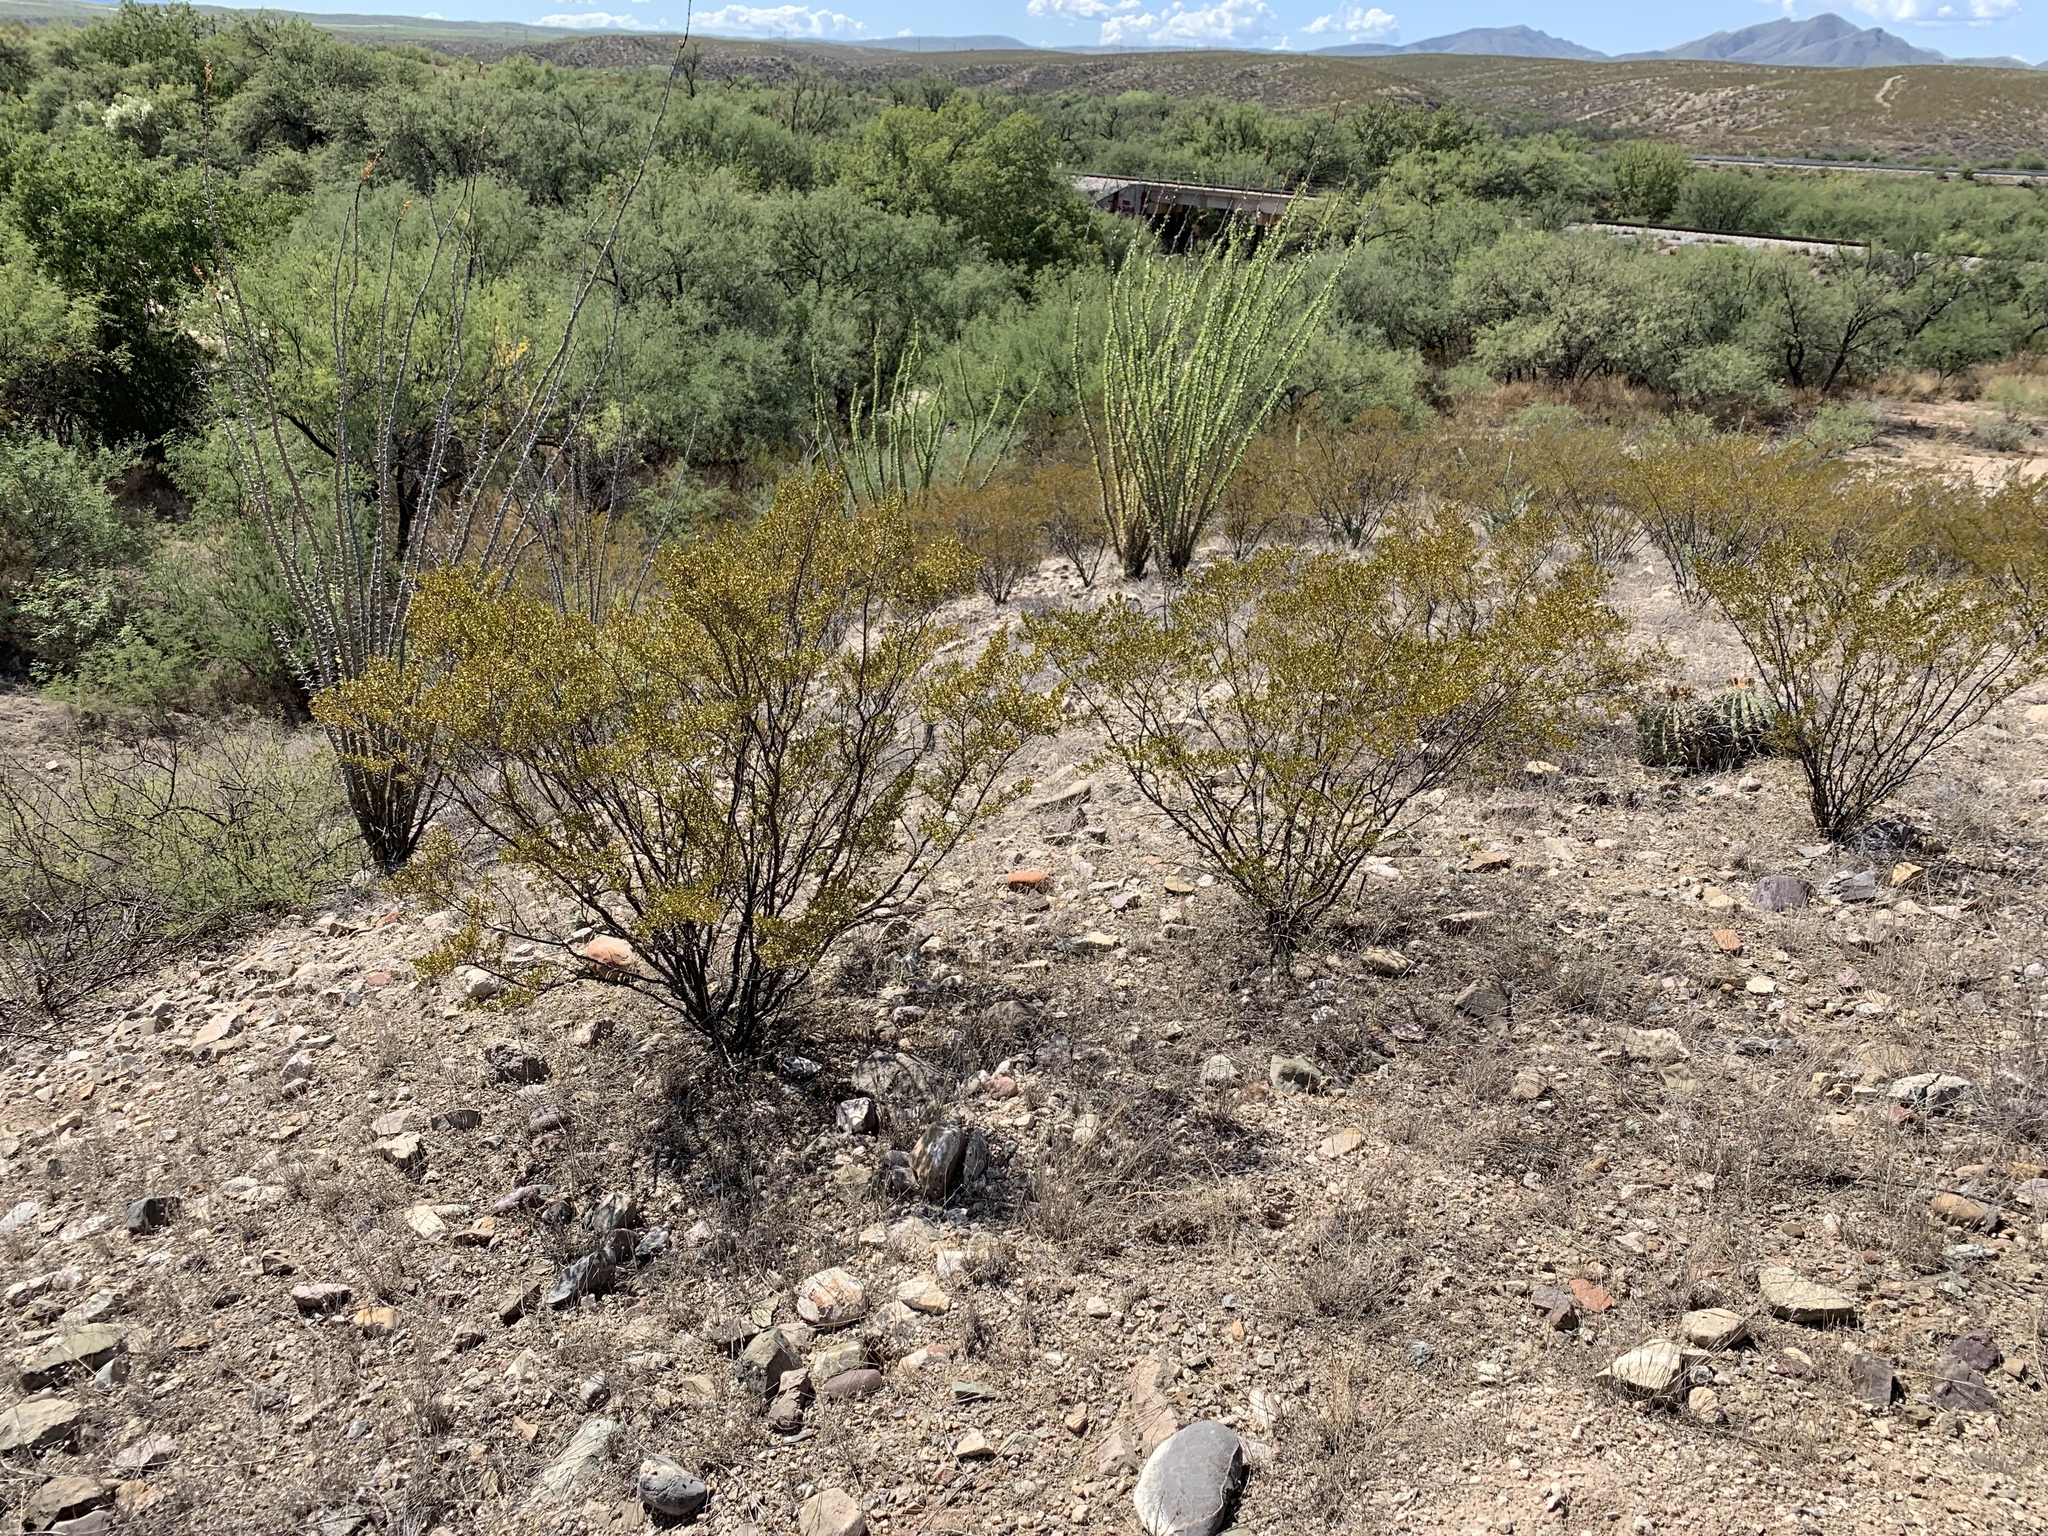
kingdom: Plantae
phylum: Tracheophyta
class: Magnoliopsida
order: Zygophyllales
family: Zygophyllaceae
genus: Larrea
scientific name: Larrea tridentata
